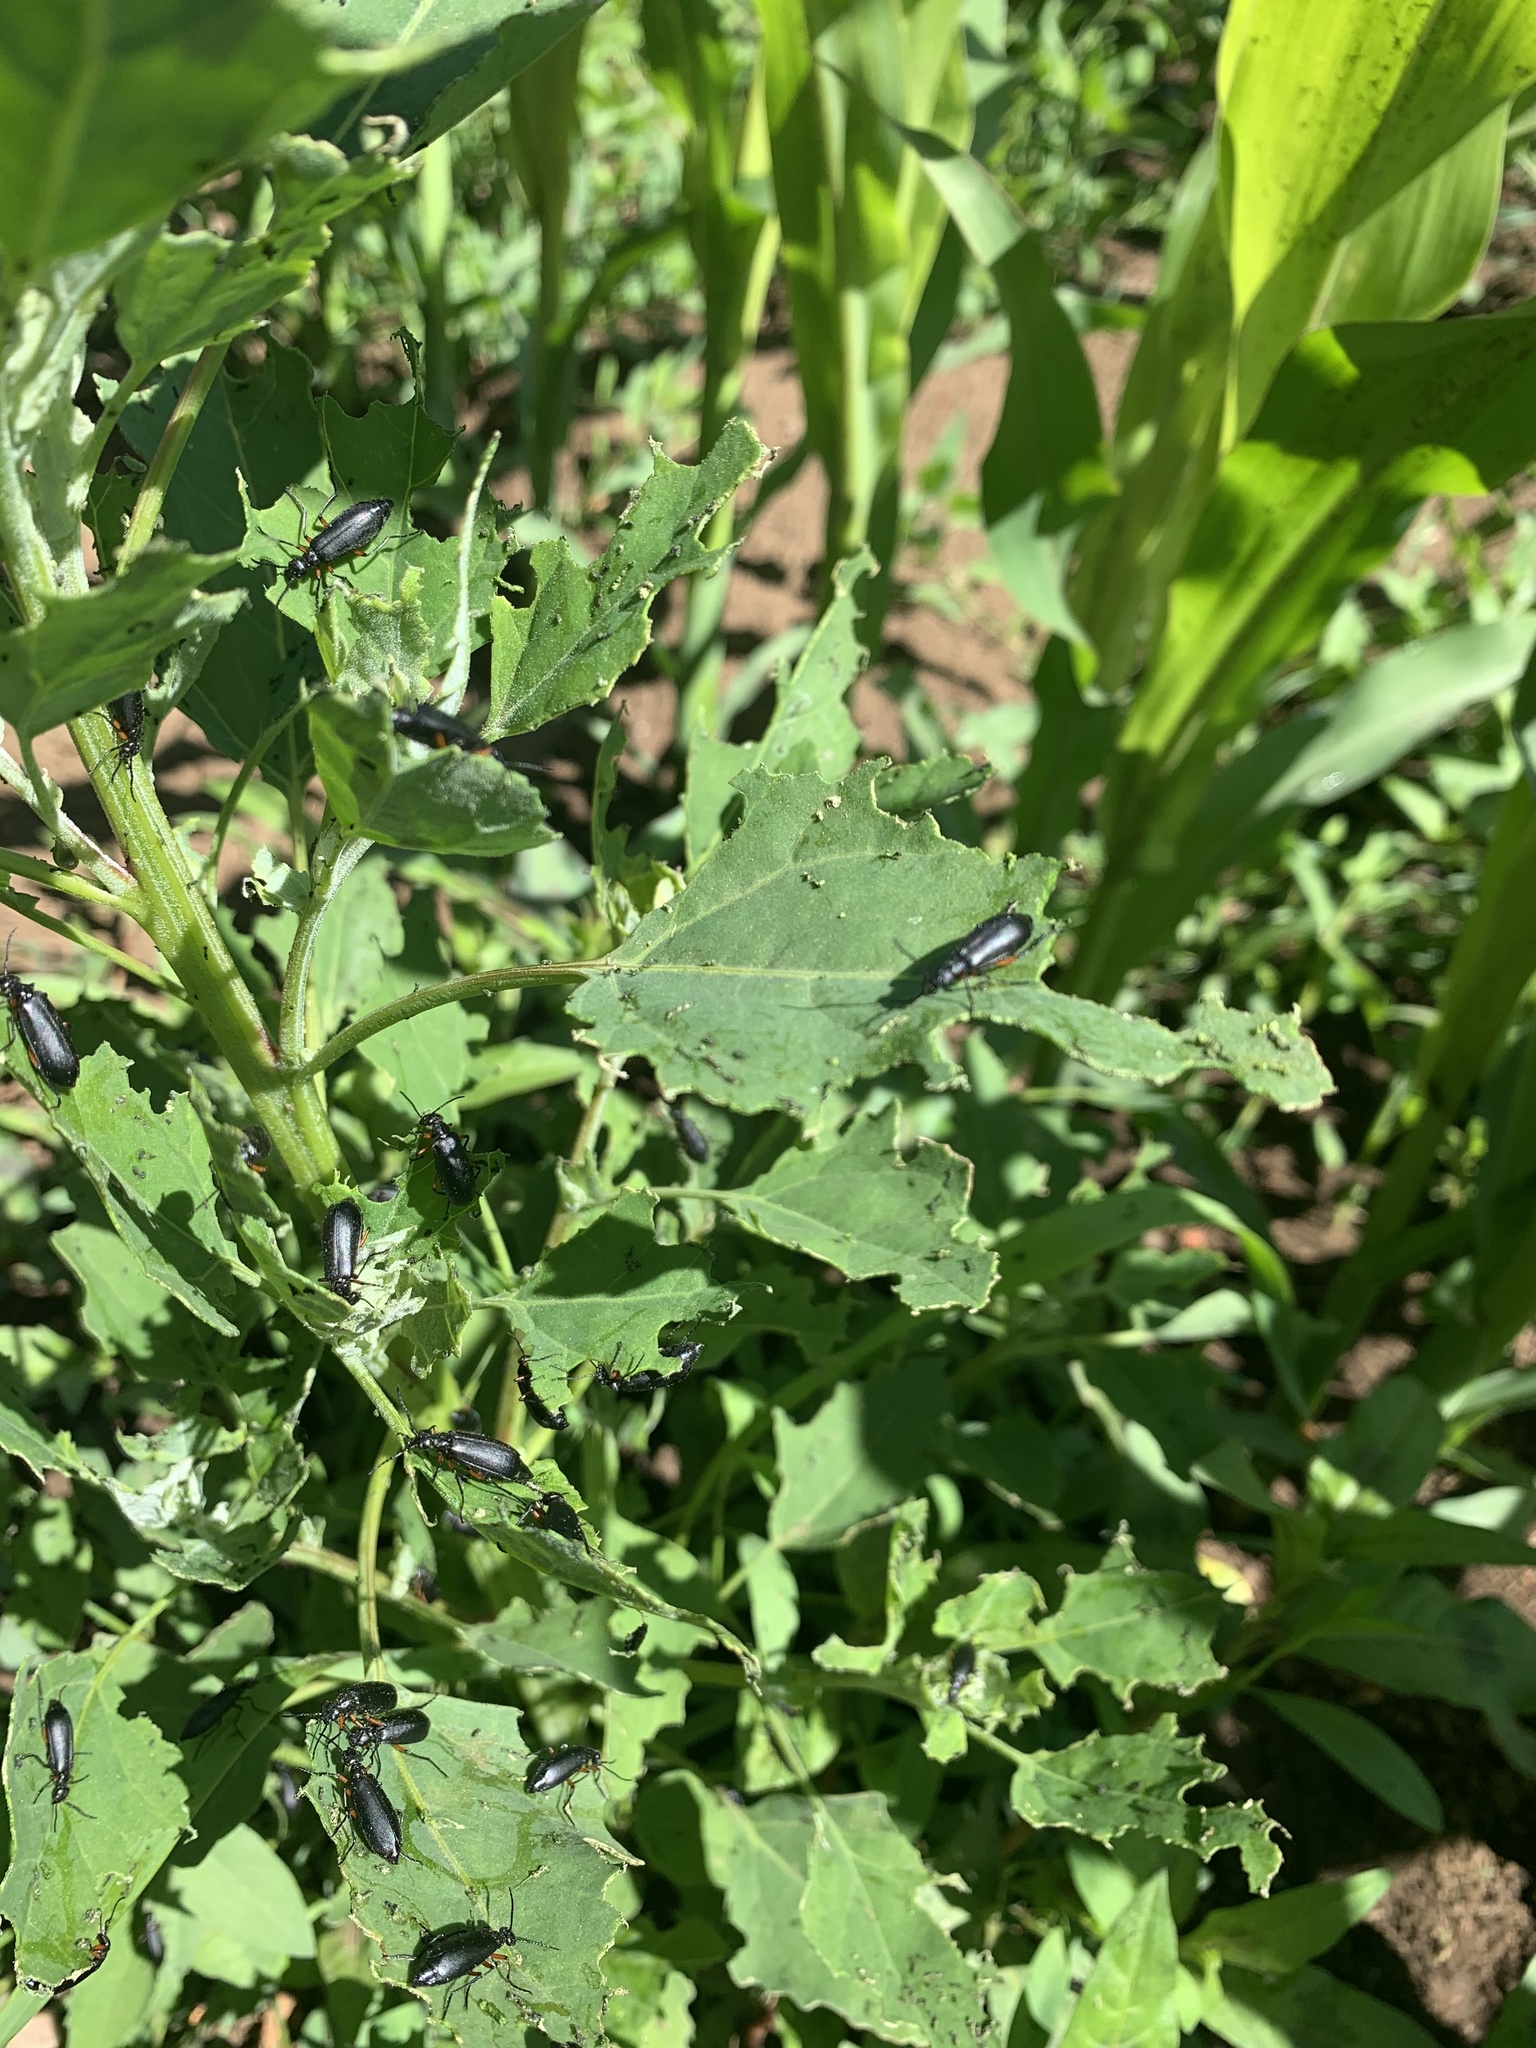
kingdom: Animalia
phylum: Arthropoda
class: Insecta
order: Coleoptera
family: Meloidae
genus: Epicauta
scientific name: Epicauta
